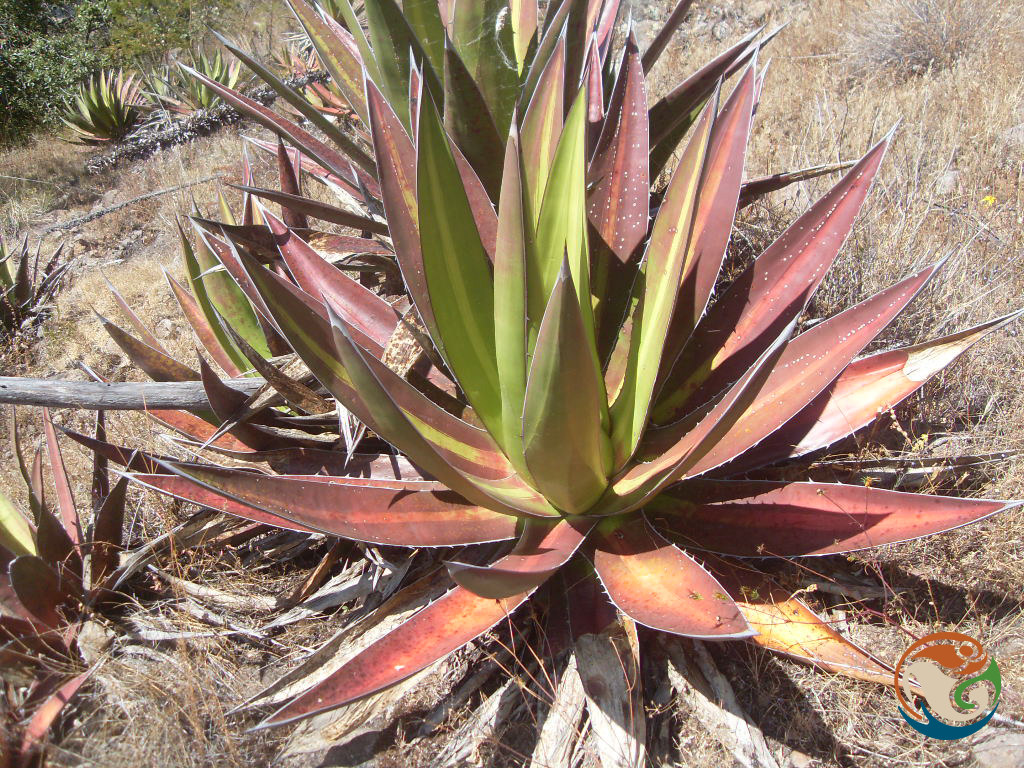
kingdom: Plantae
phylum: Tracheophyta
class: Liliopsida
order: Asparagales
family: Asparagaceae
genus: Agave
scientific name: Agave angustiarum
